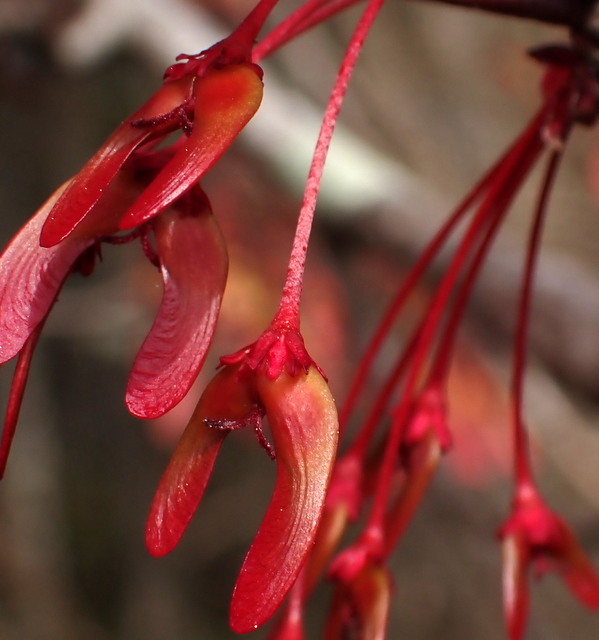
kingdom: Plantae
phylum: Tracheophyta
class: Magnoliopsida
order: Sapindales
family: Sapindaceae
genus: Acer
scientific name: Acer rubrum
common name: Red maple
